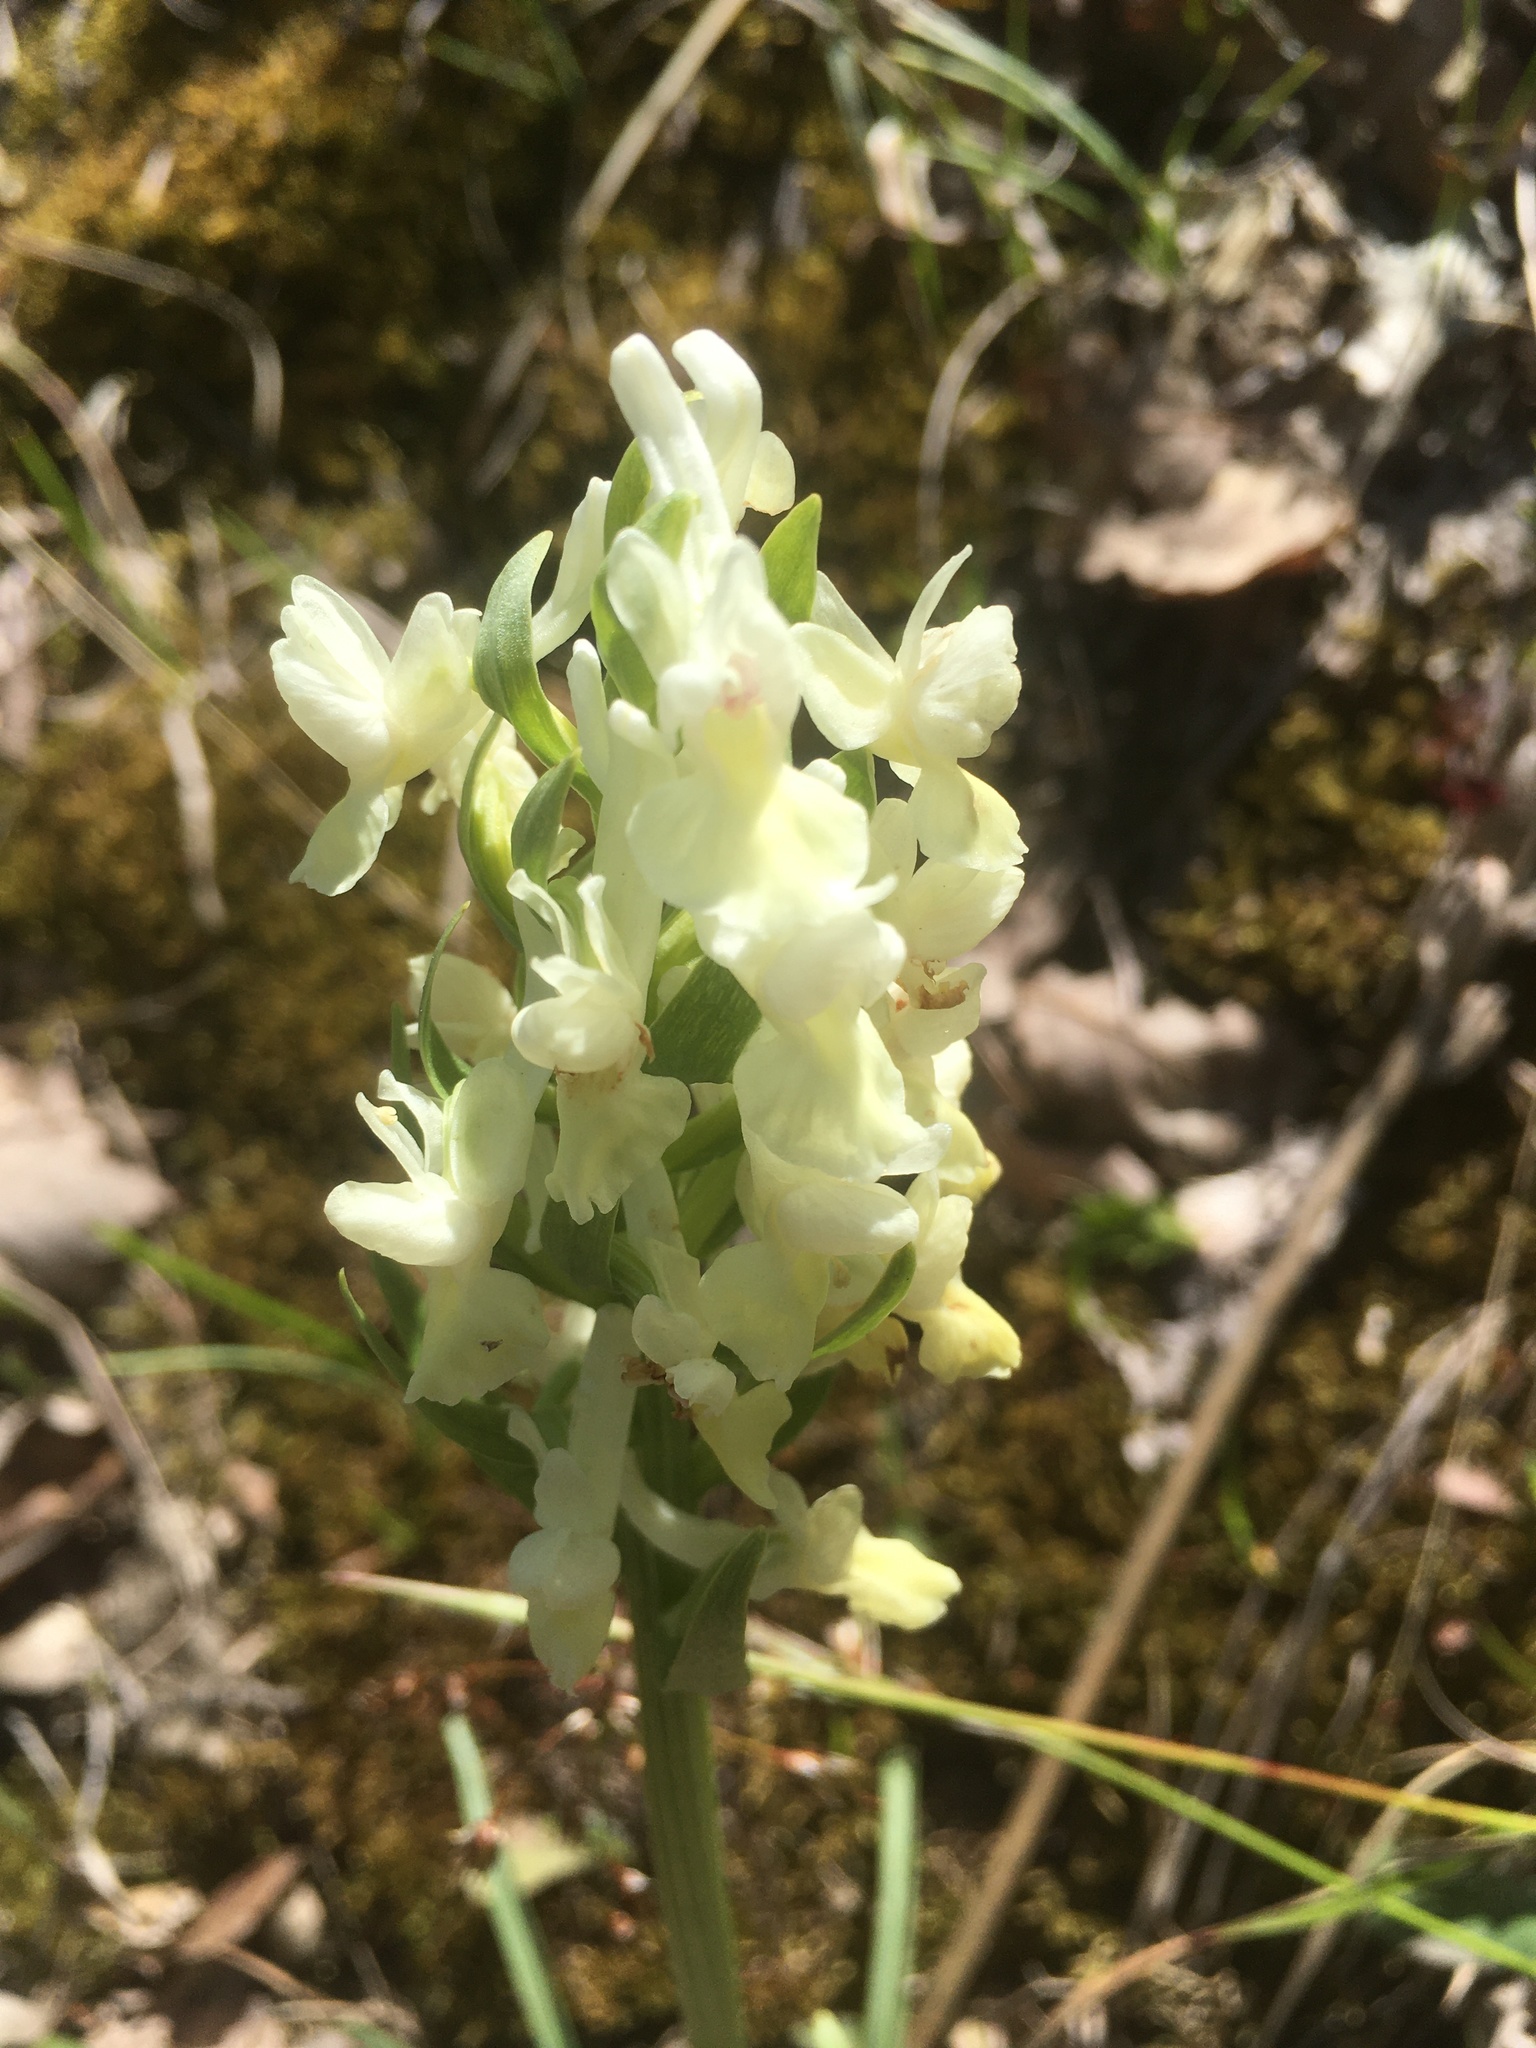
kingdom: Plantae
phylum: Tracheophyta
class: Liliopsida
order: Asparagales
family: Orchidaceae
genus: Dactylorhiza
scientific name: Dactylorhiza romana
